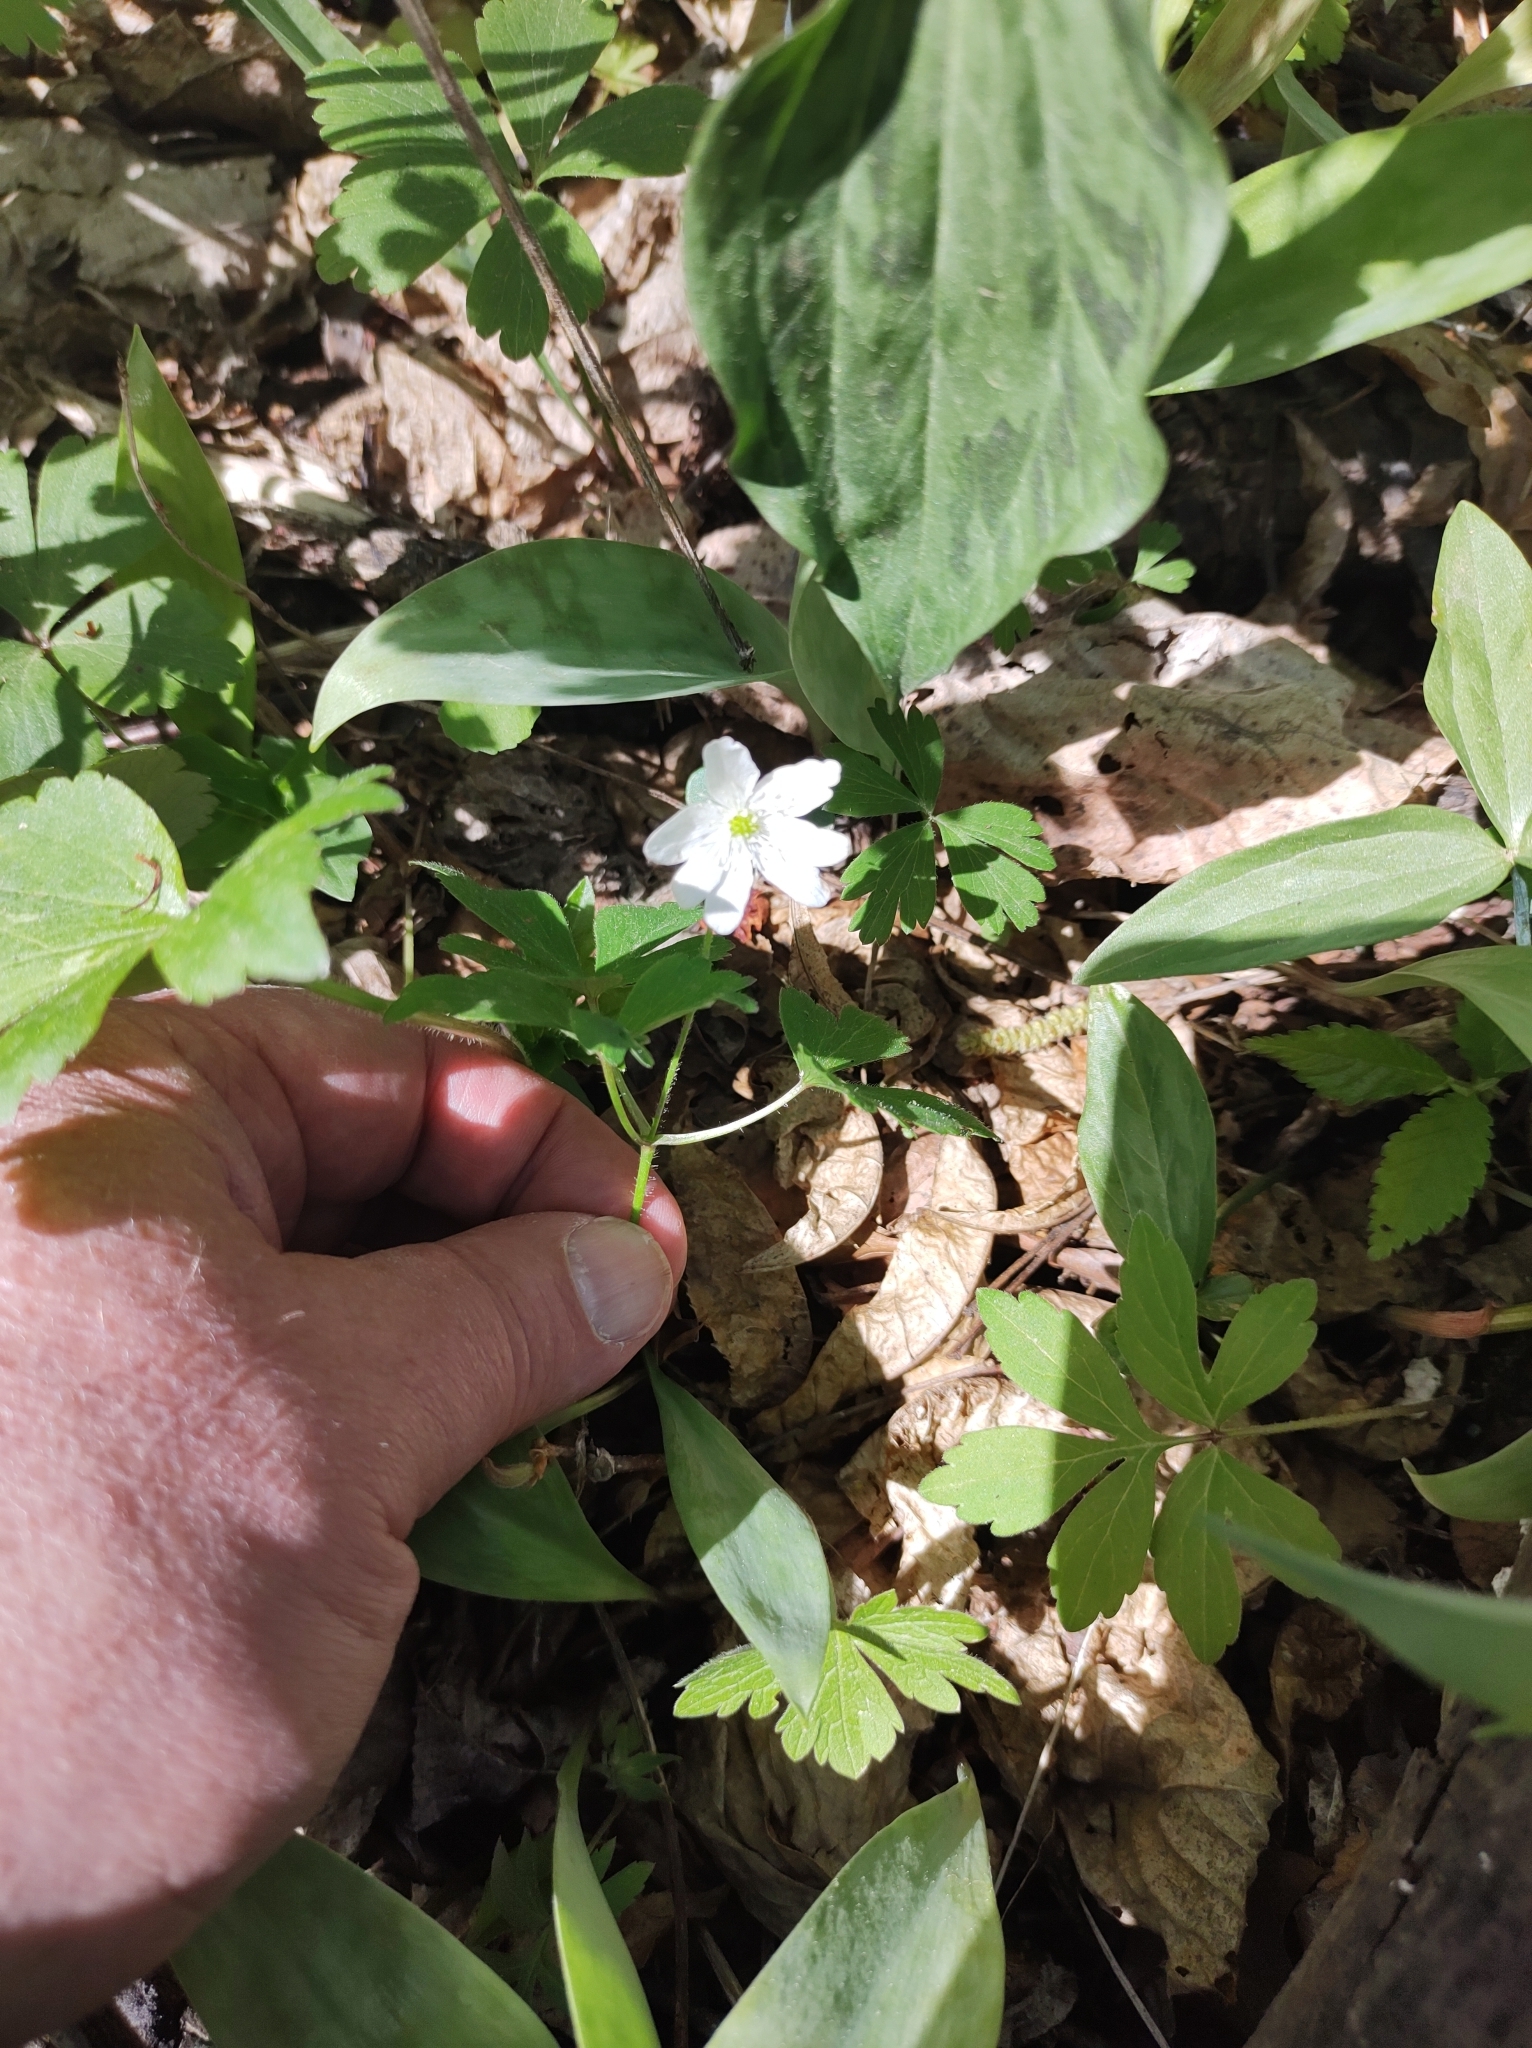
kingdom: Plantae
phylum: Tracheophyta
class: Magnoliopsida
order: Ranunculales
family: Ranunculaceae
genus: Thalictrum
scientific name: Thalictrum thalictroides
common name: Rue-anemone
